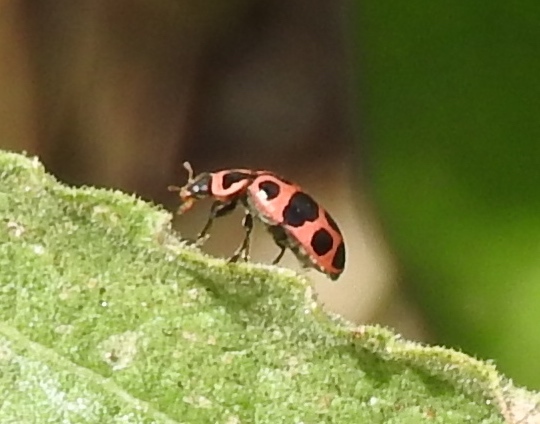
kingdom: Animalia
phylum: Arthropoda
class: Insecta
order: Coleoptera
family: Coccinellidae
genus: Coleomegilla
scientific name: Coleomegilla maculata
